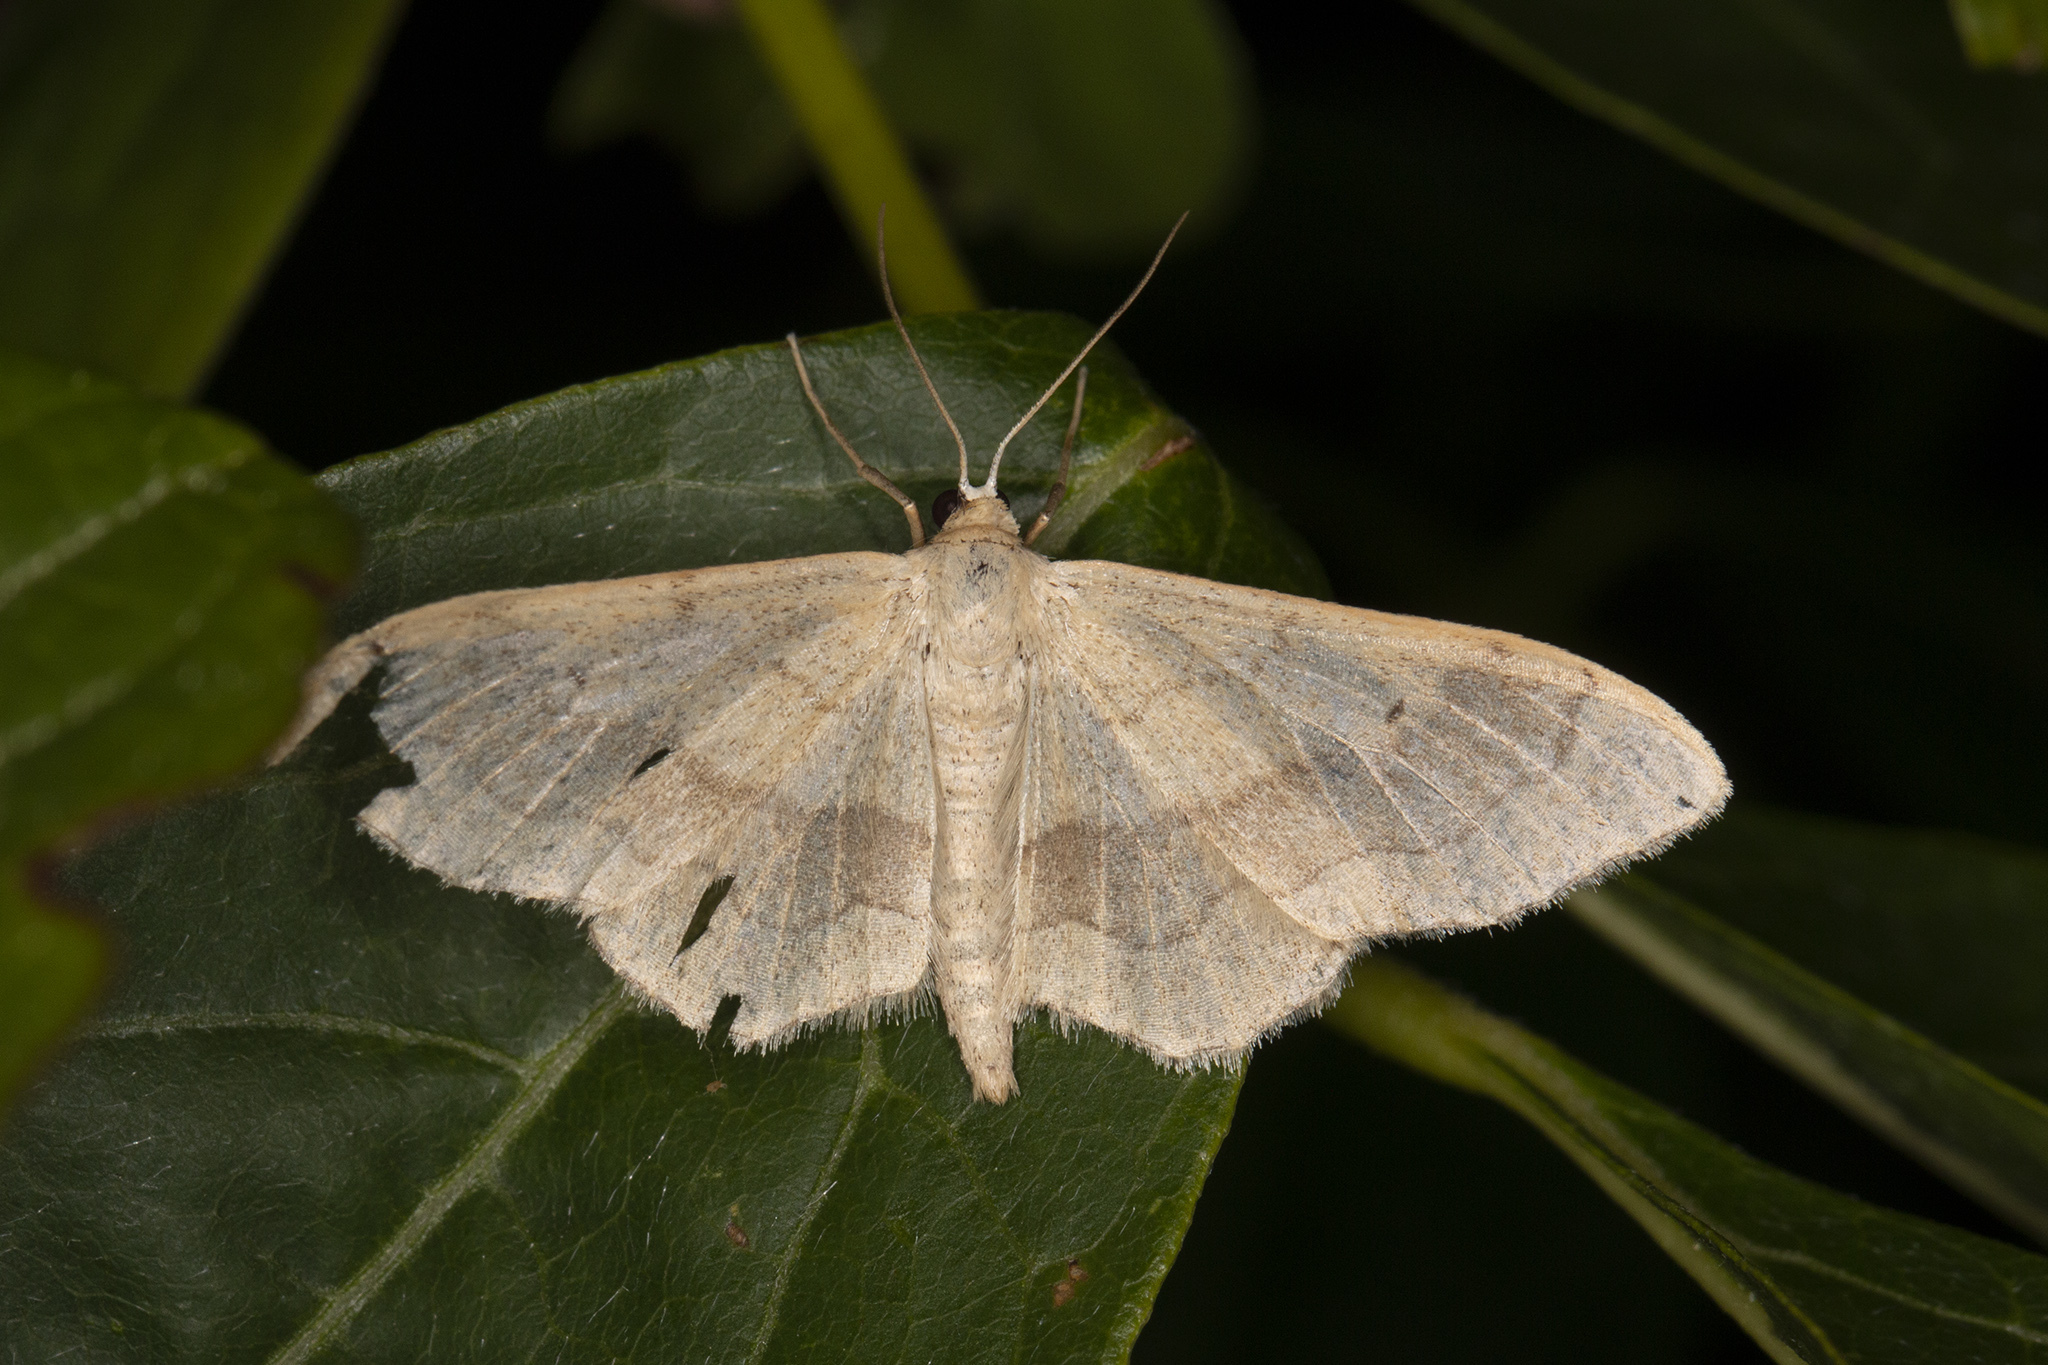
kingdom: Animalia
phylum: Arthropoda
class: Insecta
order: Lepidoptera
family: Geometridae
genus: Idaea
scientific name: Idaea aversata
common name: Riband wave
